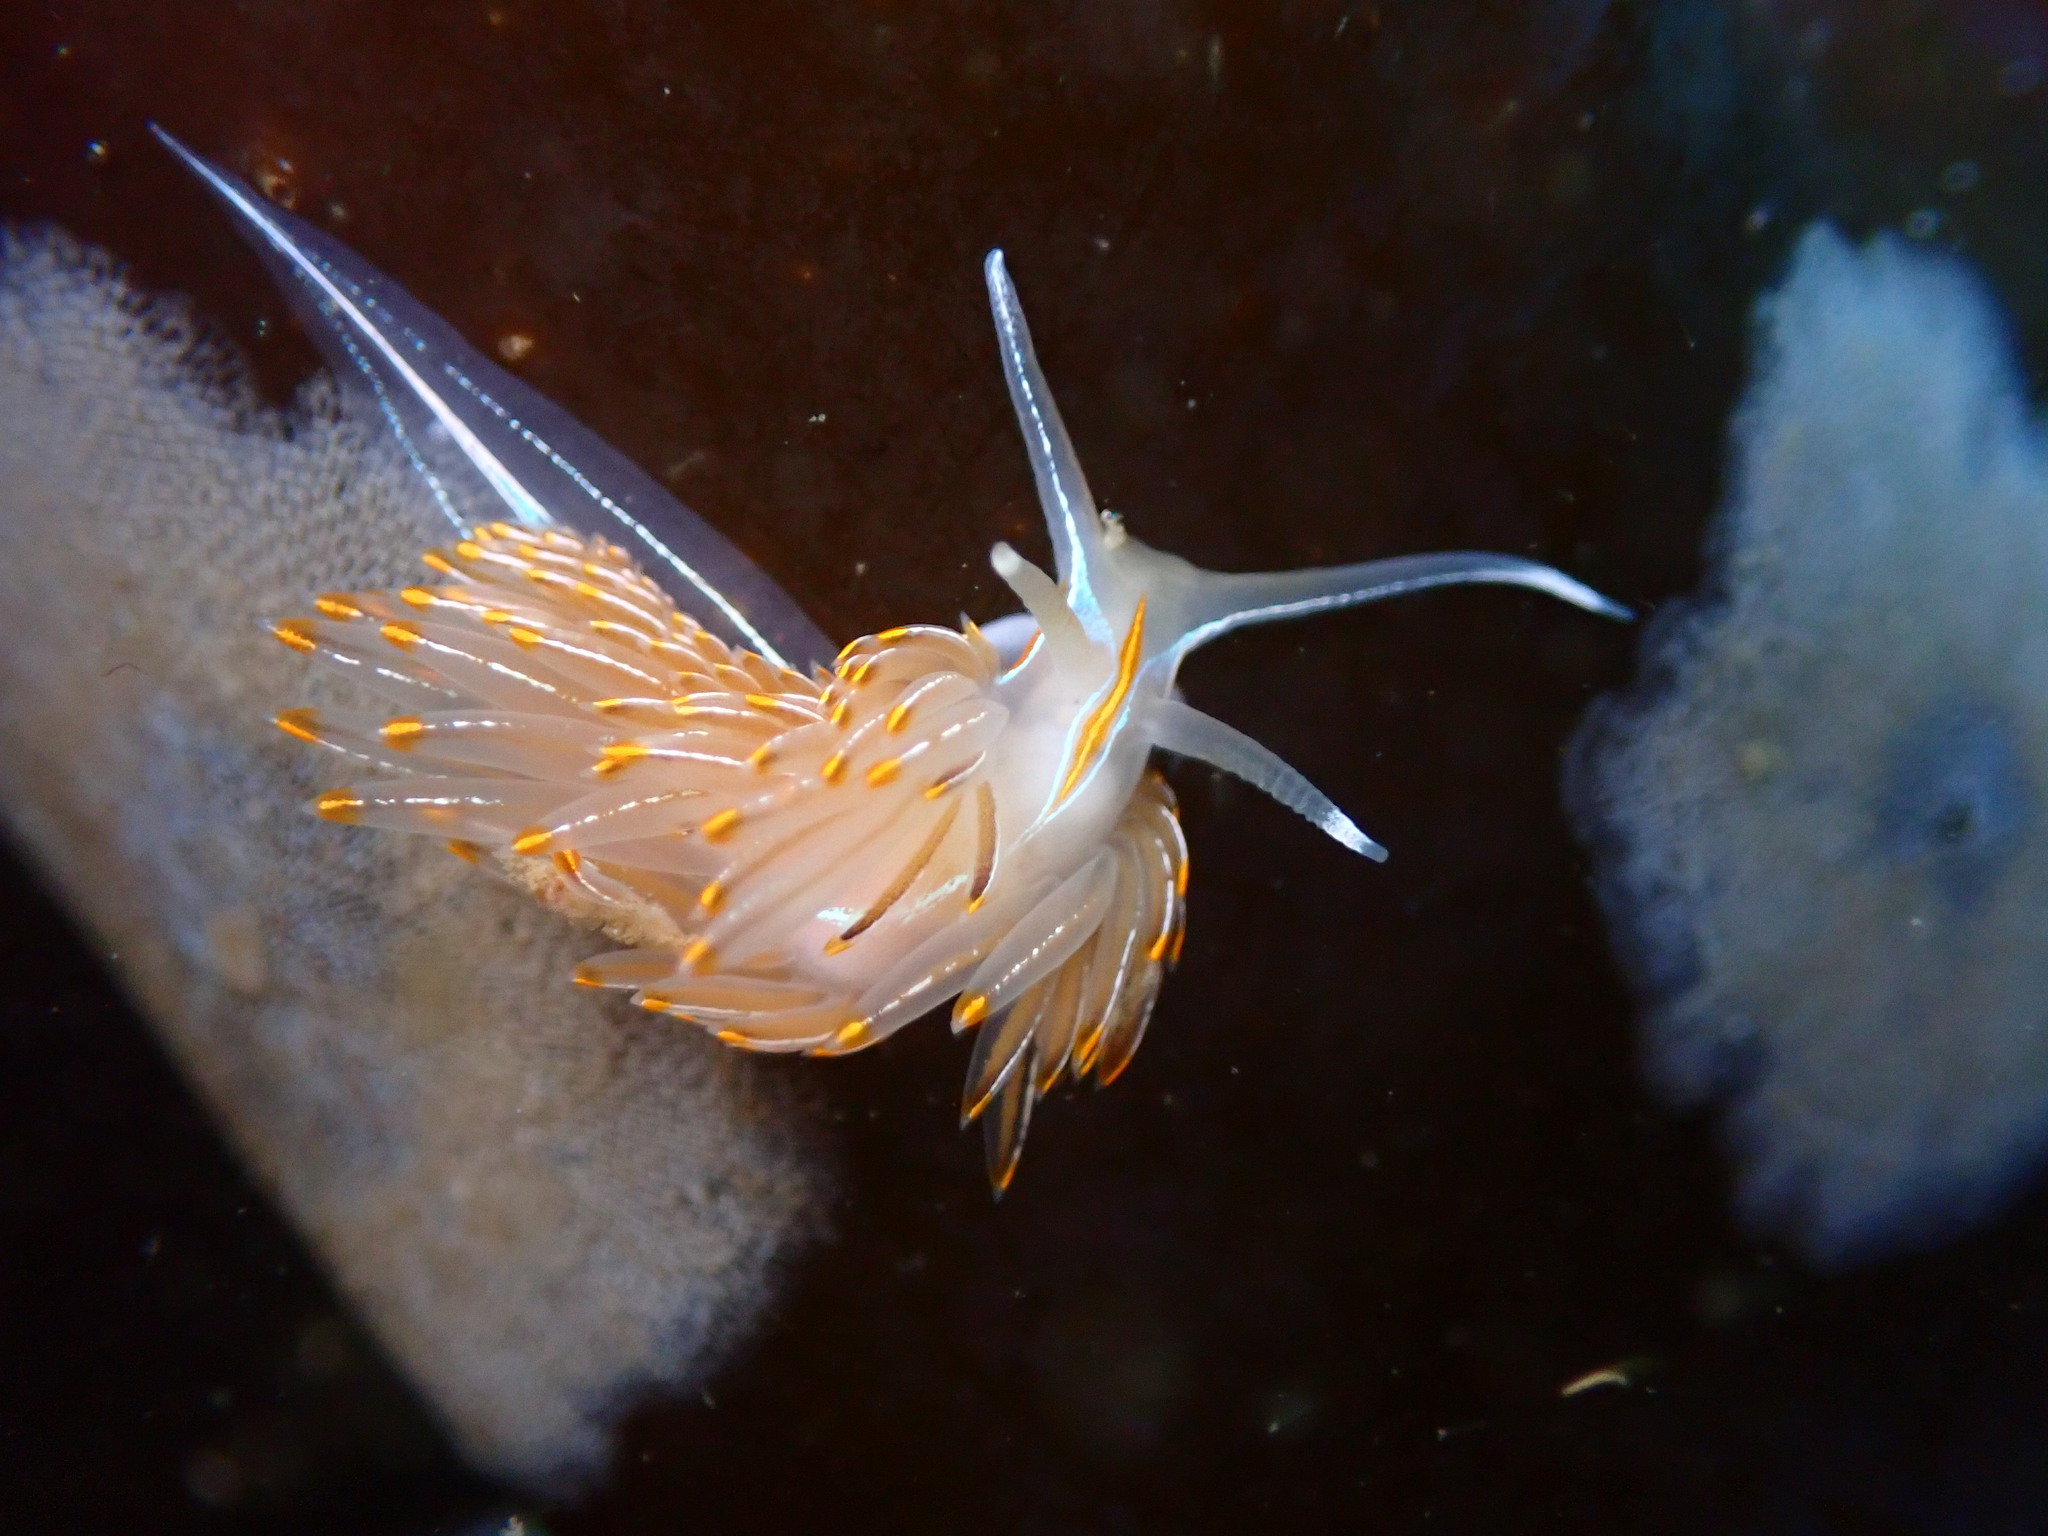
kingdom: Animalia
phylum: Mollusca
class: Gastropoda
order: Nudibranchia
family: Myrrhinidae
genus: Hermissenda
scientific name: Hermissenda crassicornis
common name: Hermissenda
